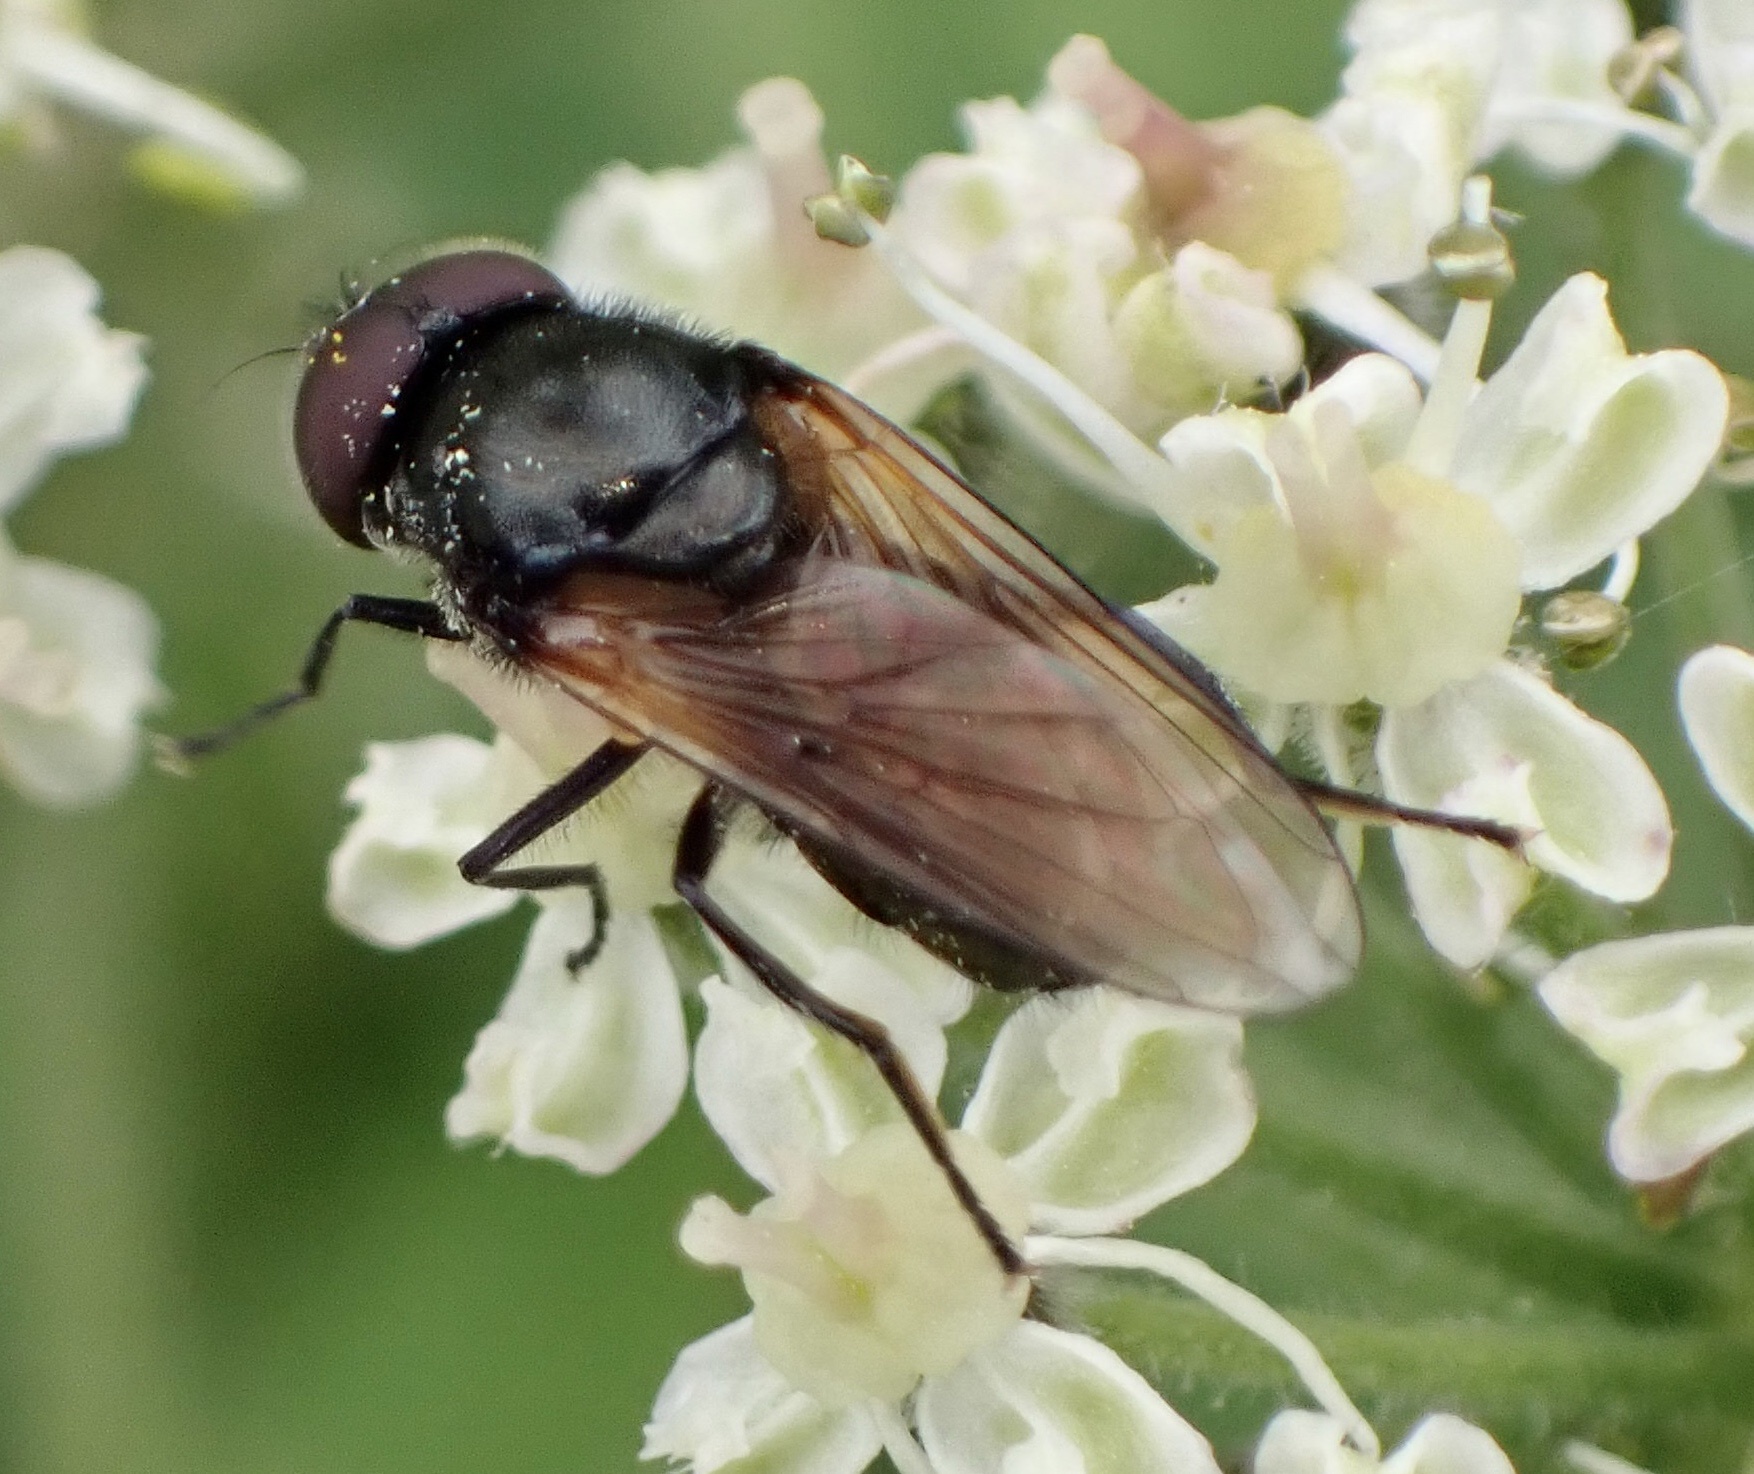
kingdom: Animalia
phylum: Arthropoda
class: Insecta
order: Diptera
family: Syrphidae
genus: Cheilosia
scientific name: Cheilosia impressa
